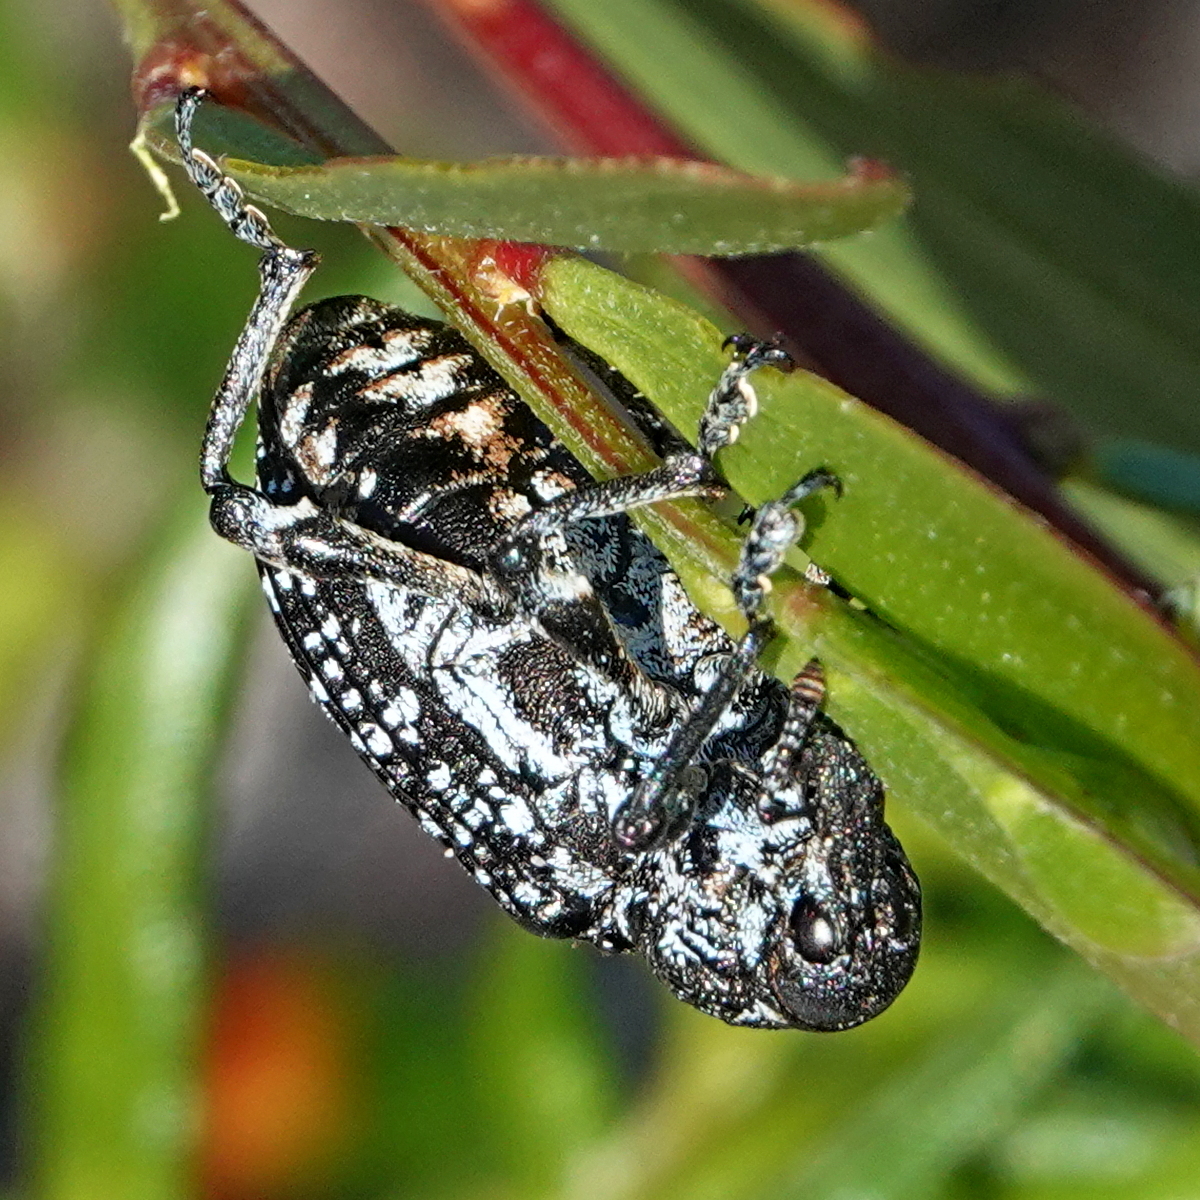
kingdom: Animalia
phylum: Arthropoda
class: Insecta
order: Coleoptera
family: Curculionidae
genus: Chrysolopus
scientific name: Chrysolopus spectabilis
